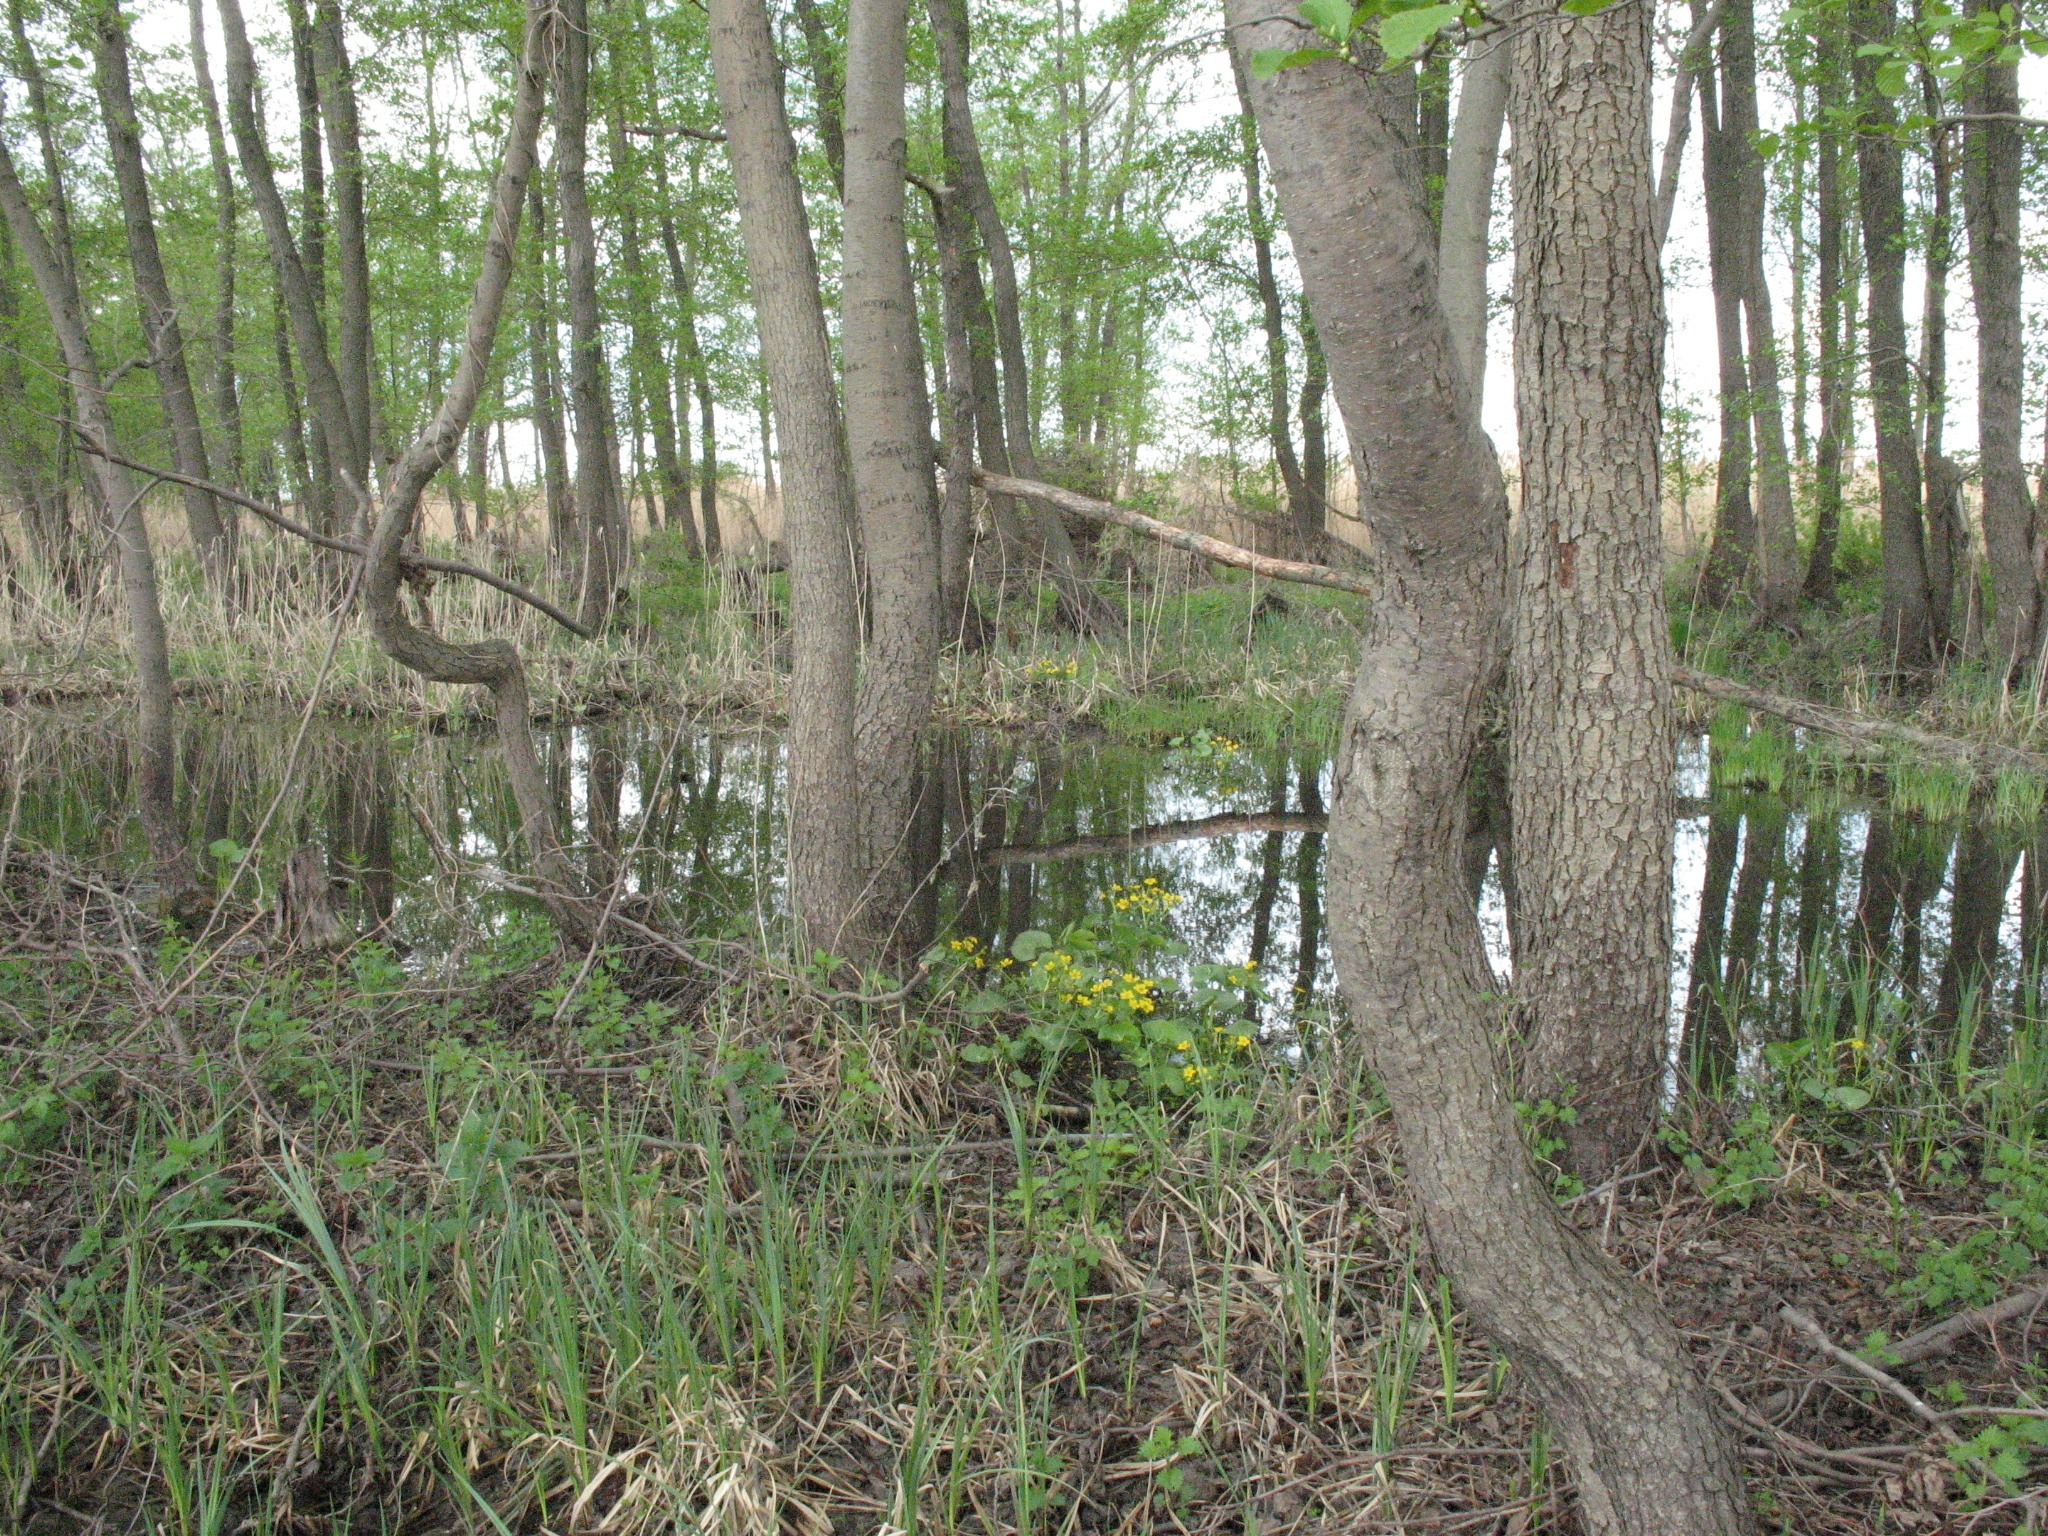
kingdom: Plantae
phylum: Tracheophyta
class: Magnoliopsida
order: Fagales
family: Betulaceae
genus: Alnus
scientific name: Alnus glutinosa
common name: Black alder
